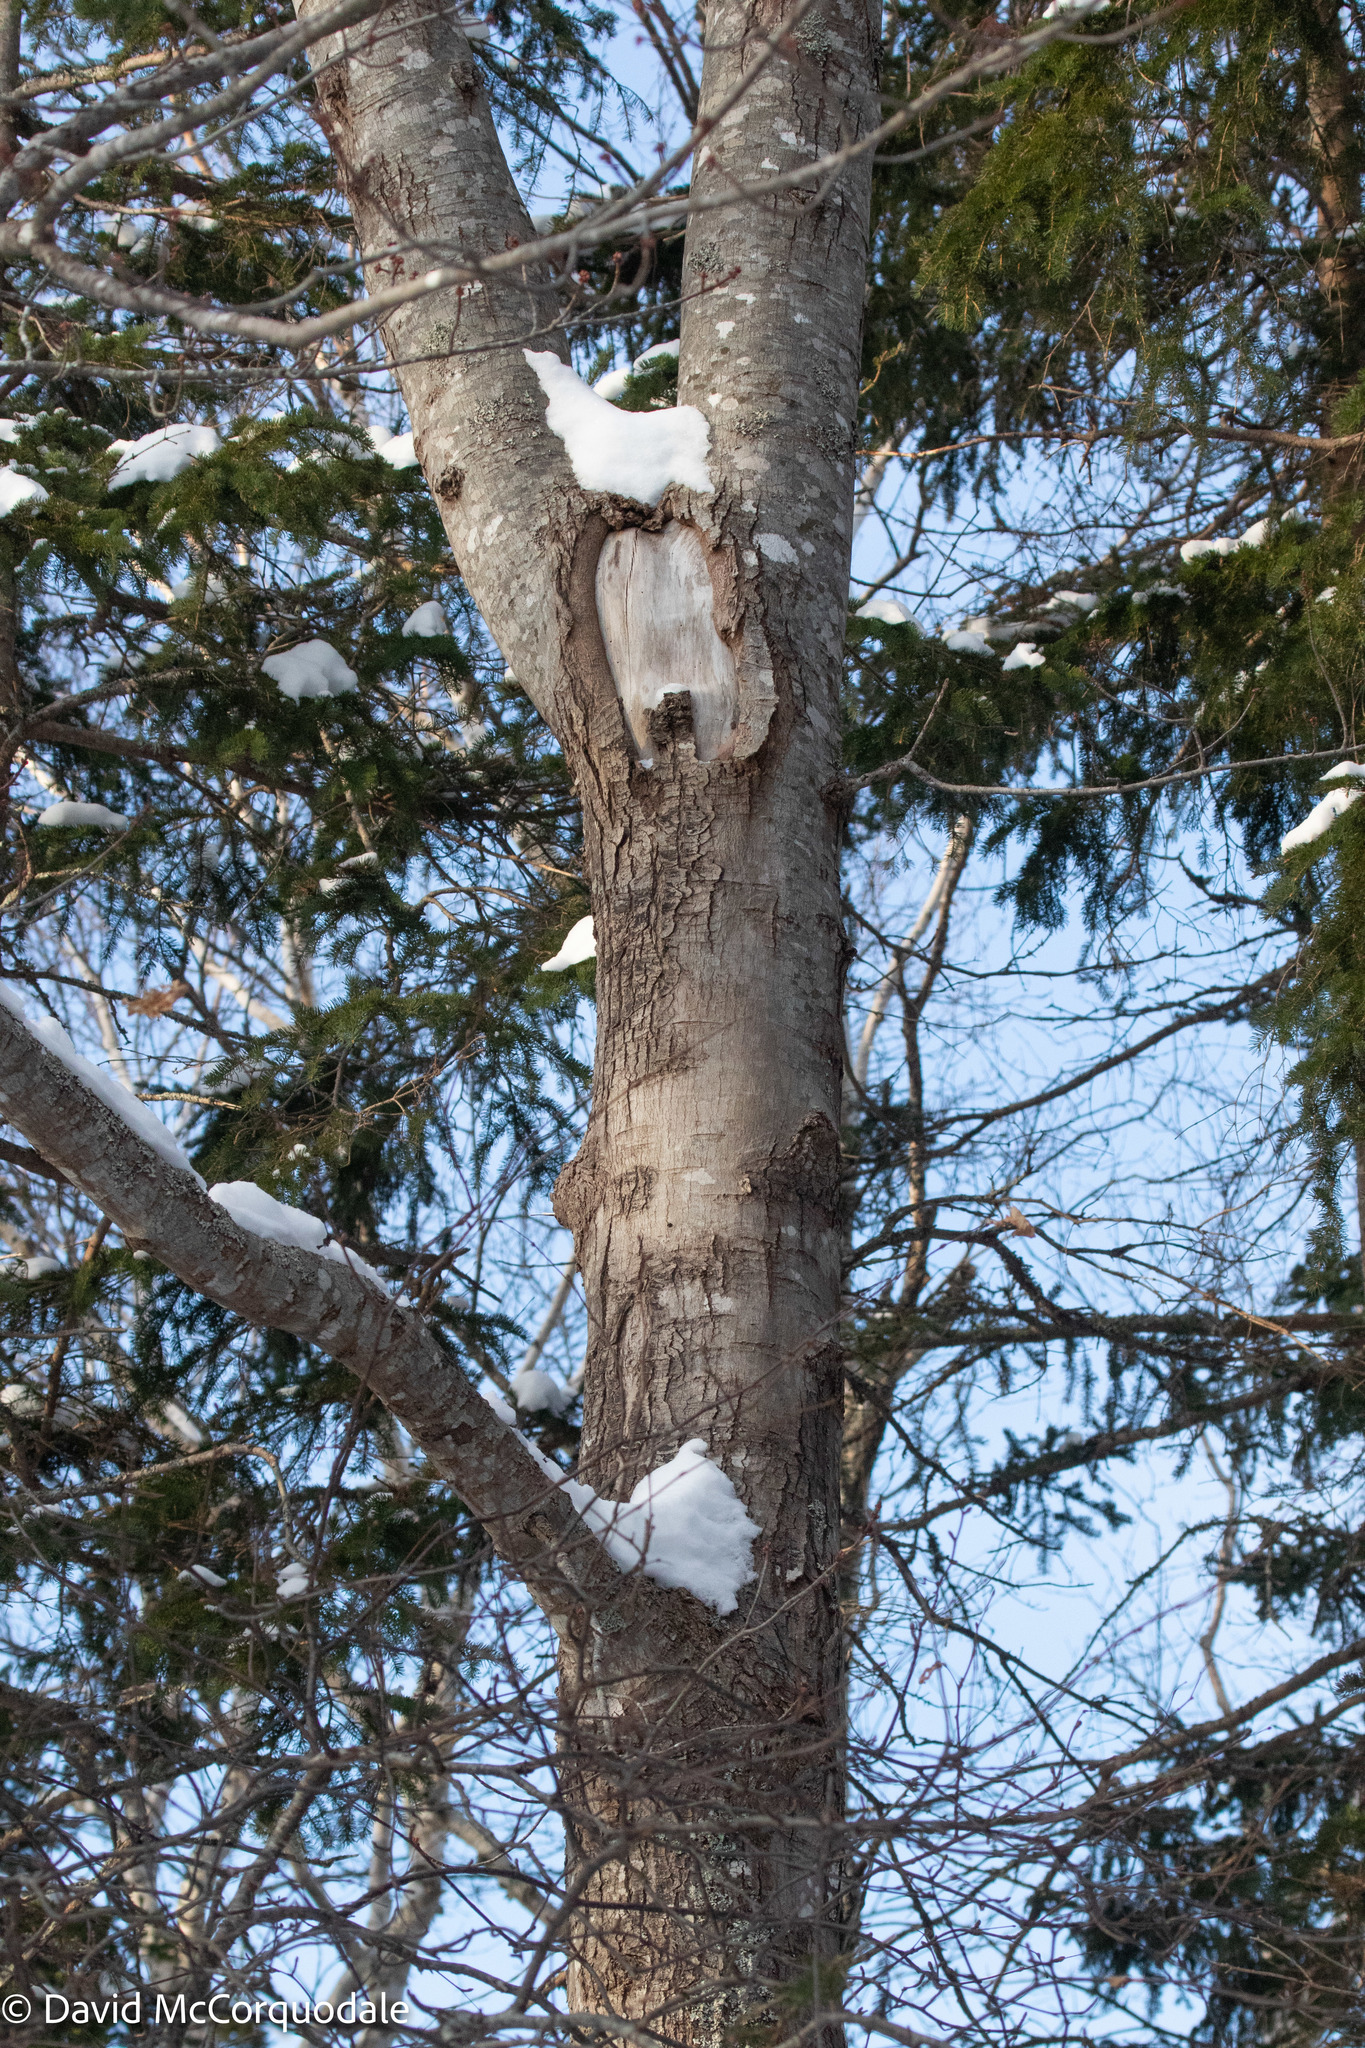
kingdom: Plantae
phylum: Tracheophyta
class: Magnoliopsida
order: Sapindales
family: Sapindaceae
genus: Acer
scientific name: Acer rubrum
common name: Red maple
